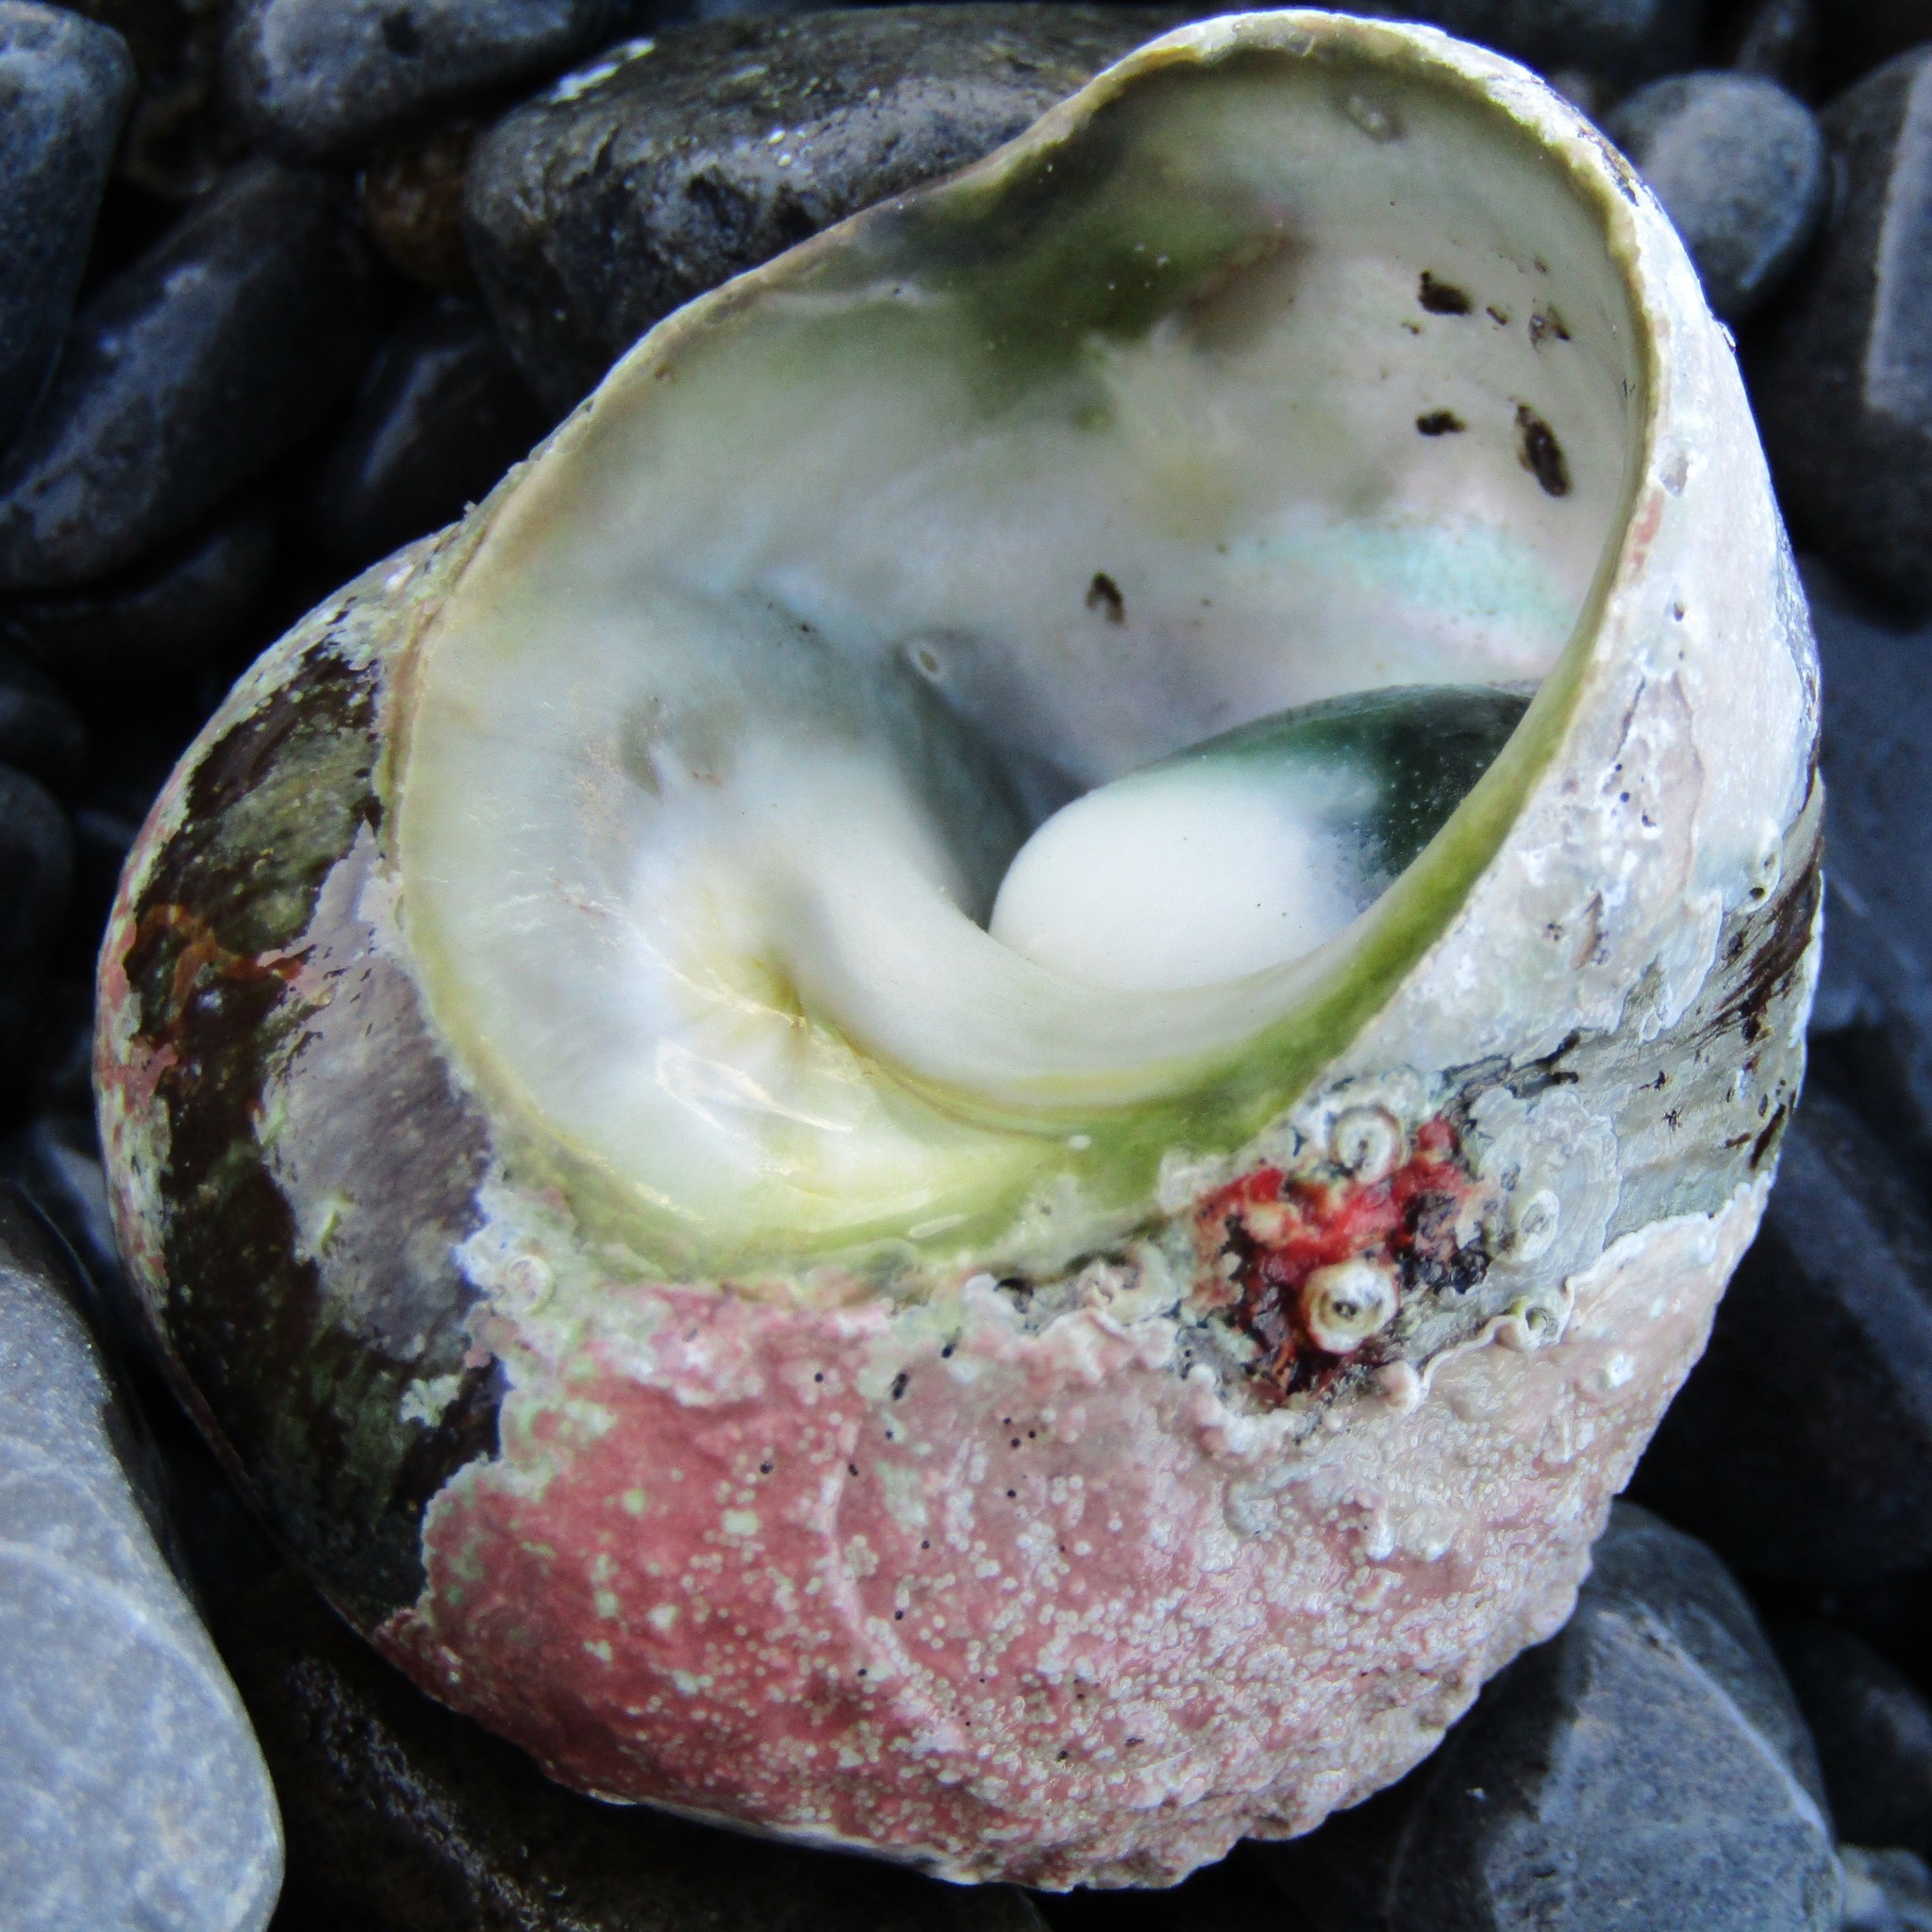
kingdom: Animalia
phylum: Mollusca
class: Gastropoda
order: Trochida
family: Turbinidae
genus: Lunella
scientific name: Lunella smaragda
